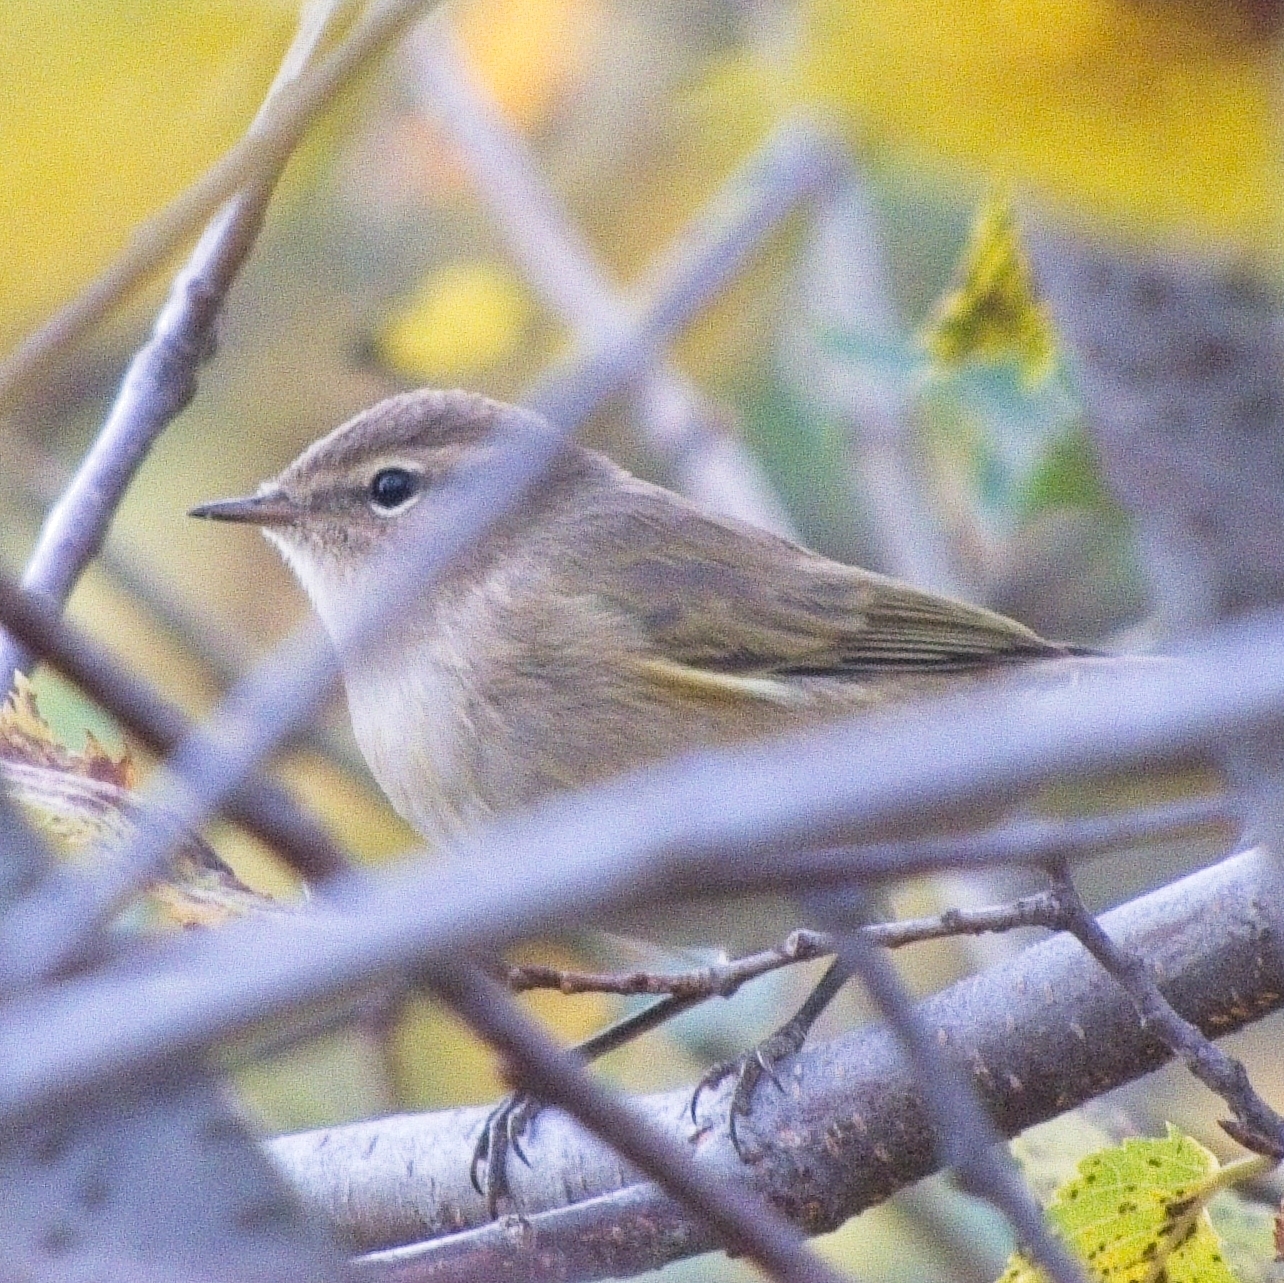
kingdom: Animalia
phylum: Chordata
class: Aves
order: Passeriformes
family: Phylloscopidae
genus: Phylloscopus
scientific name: Phylloscopus collybita
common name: Common chiffchaff
